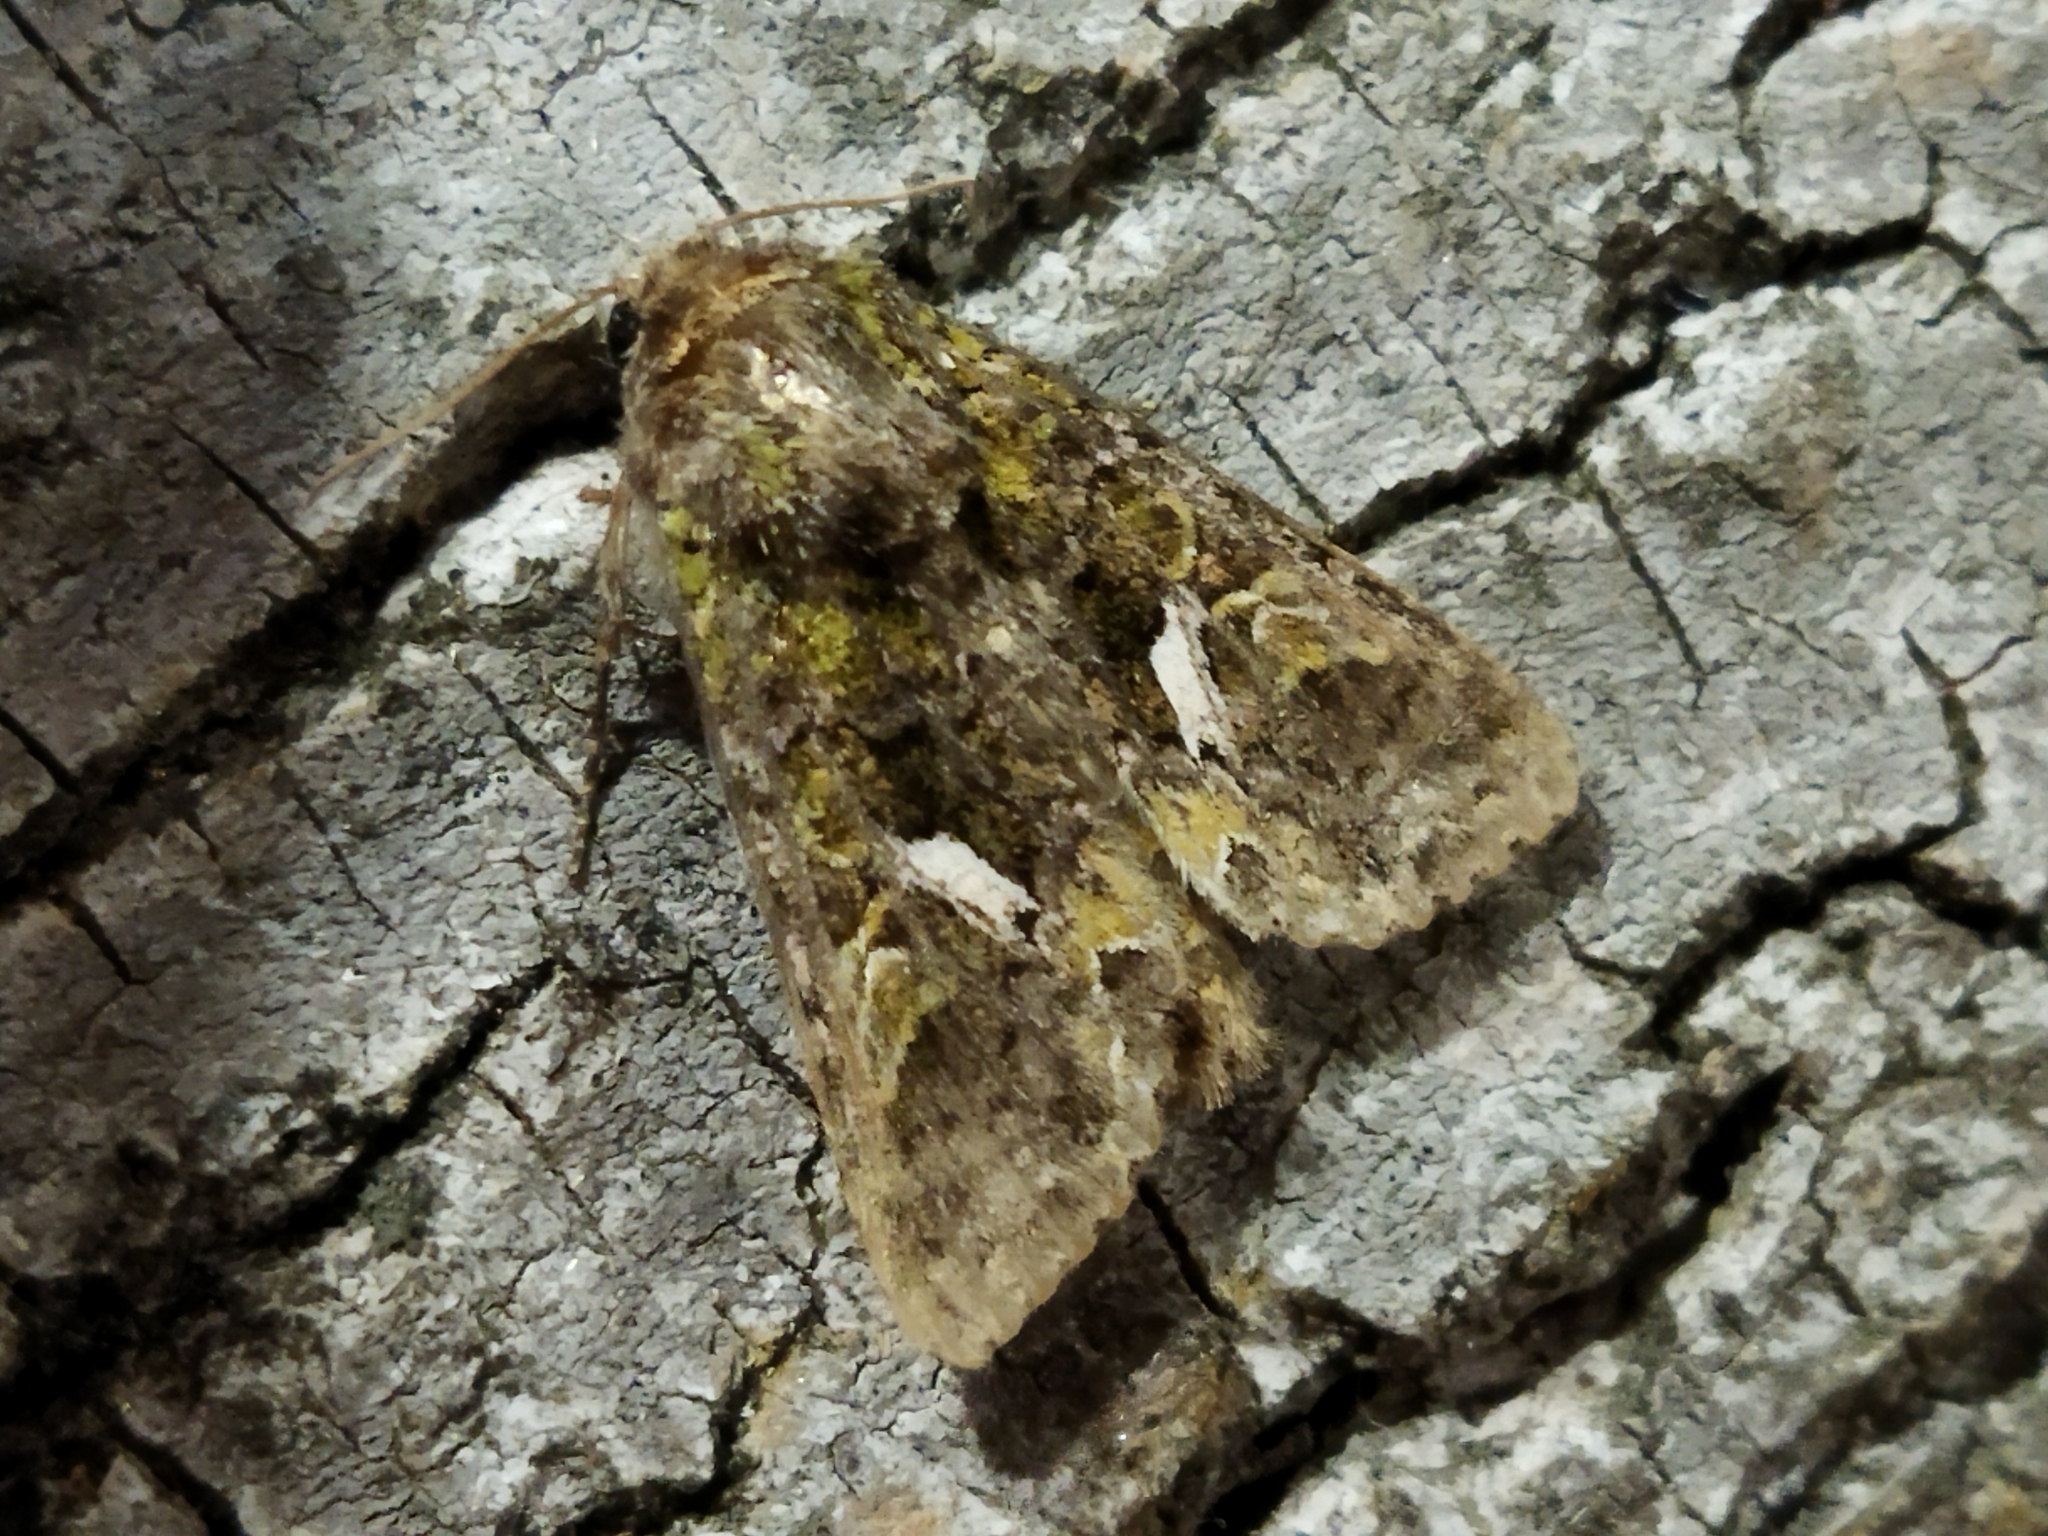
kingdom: Animalia
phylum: Arthropoda
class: Insecta
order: Lepidoptera
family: Noctuidae
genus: Trachea
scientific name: Trachea atriplicis
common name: Orache moth
